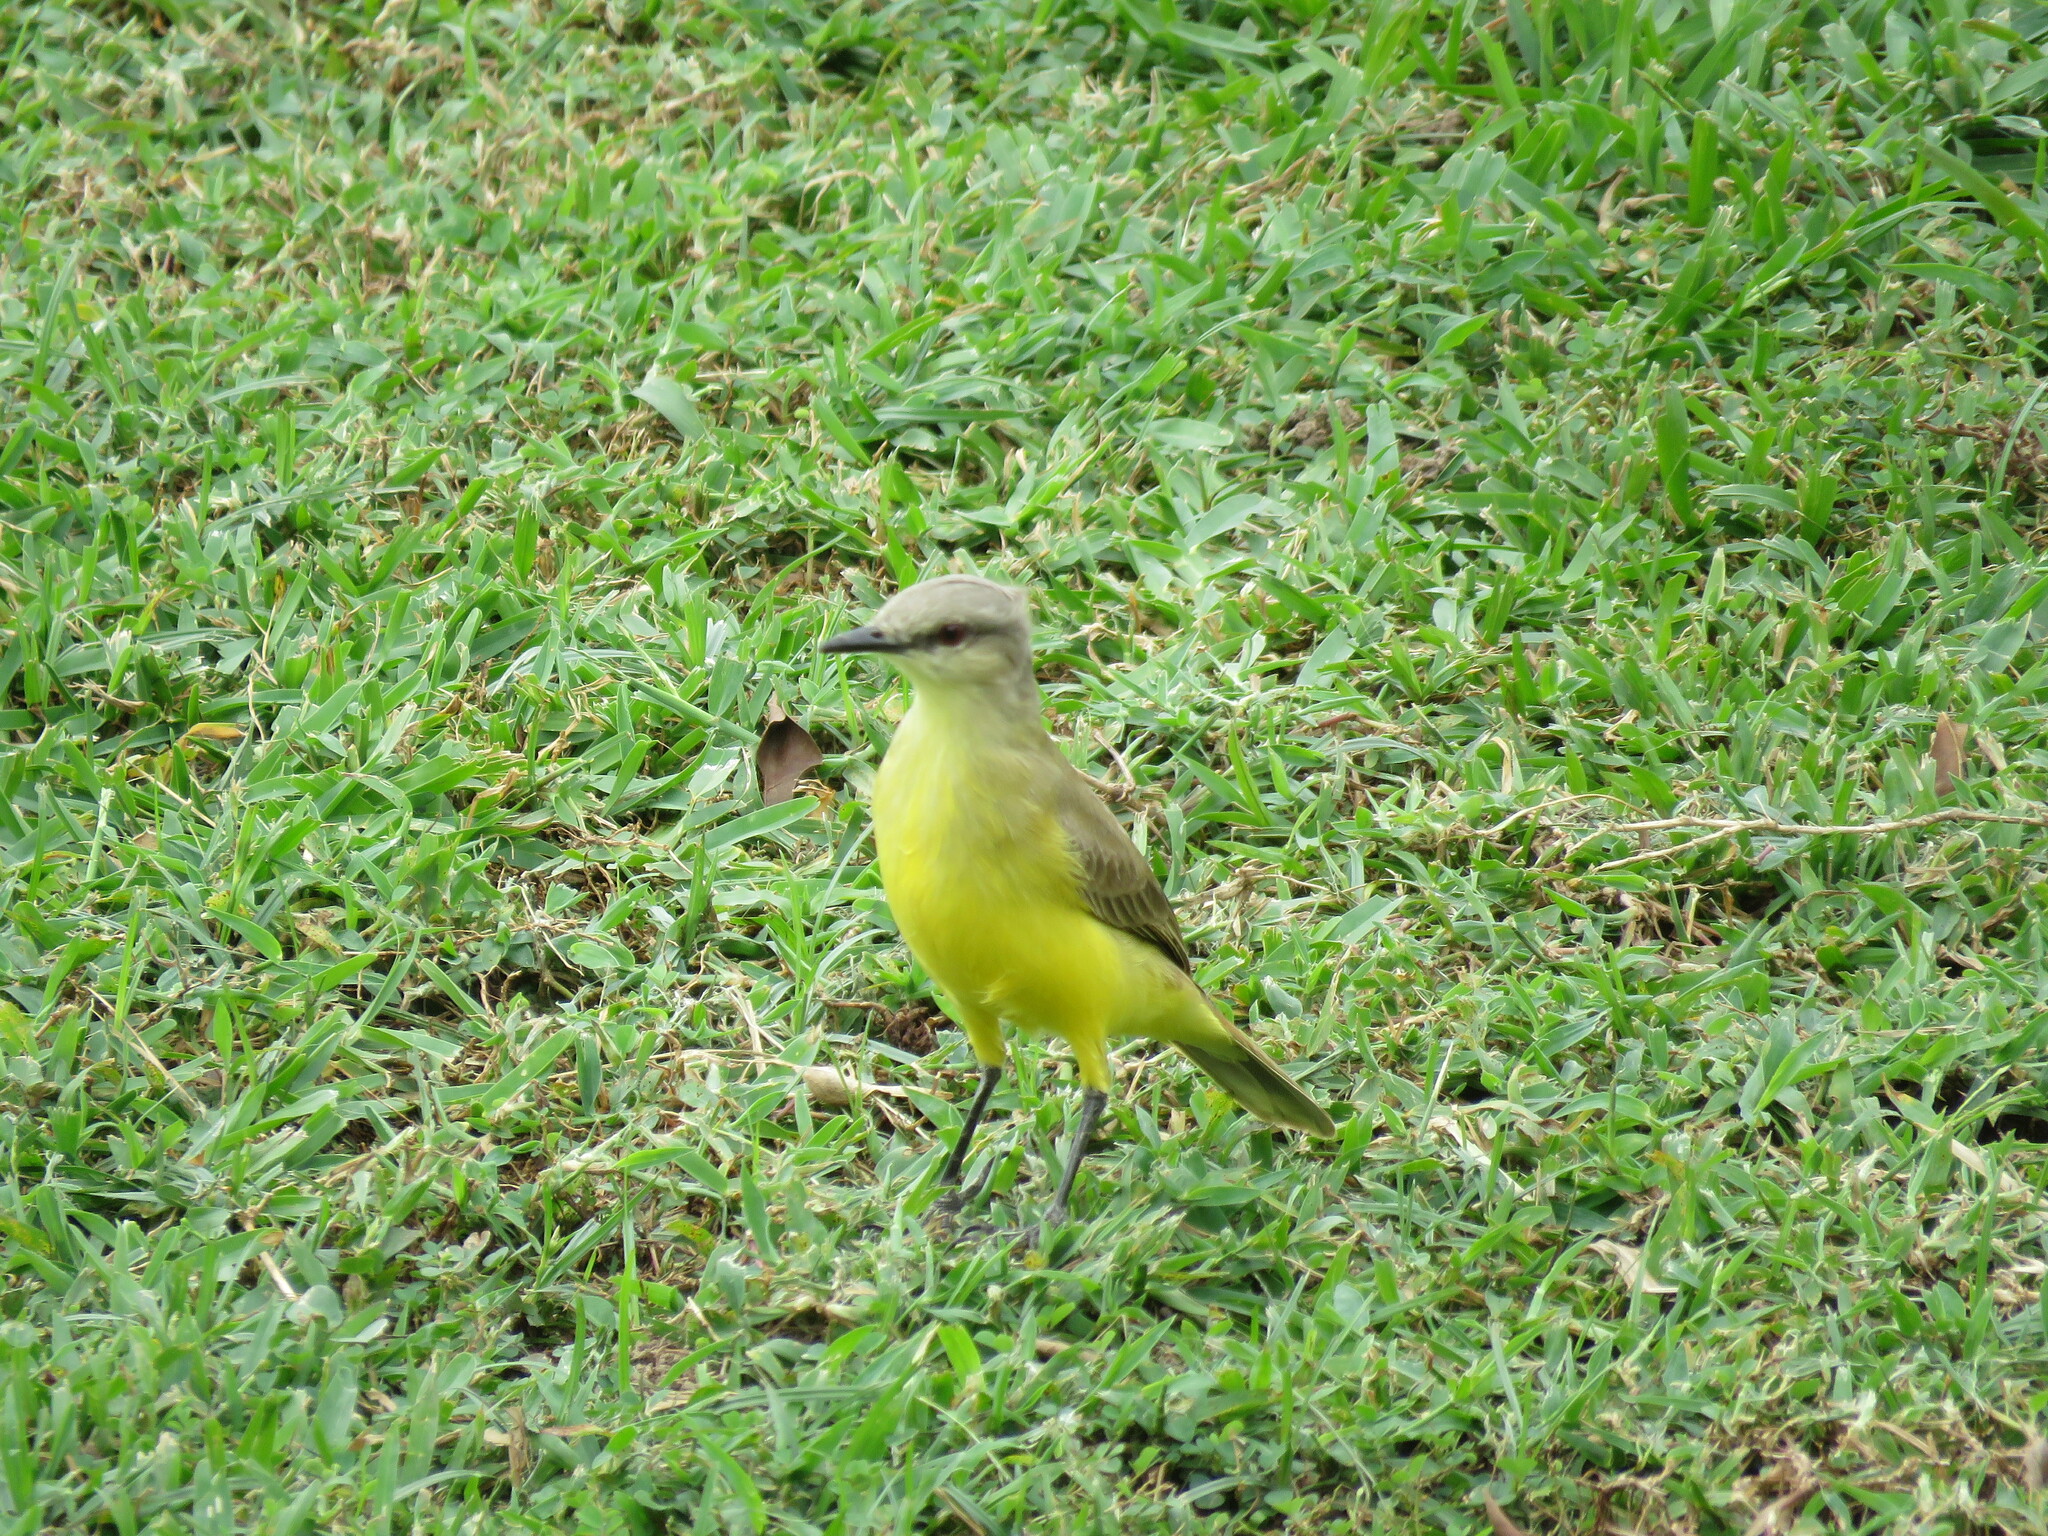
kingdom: Animalia
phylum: Chordata
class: Aves
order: Passeriformes
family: Tyrannidae
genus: Machetornis
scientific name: Machetornis rixosa
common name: Cattle tyrant
